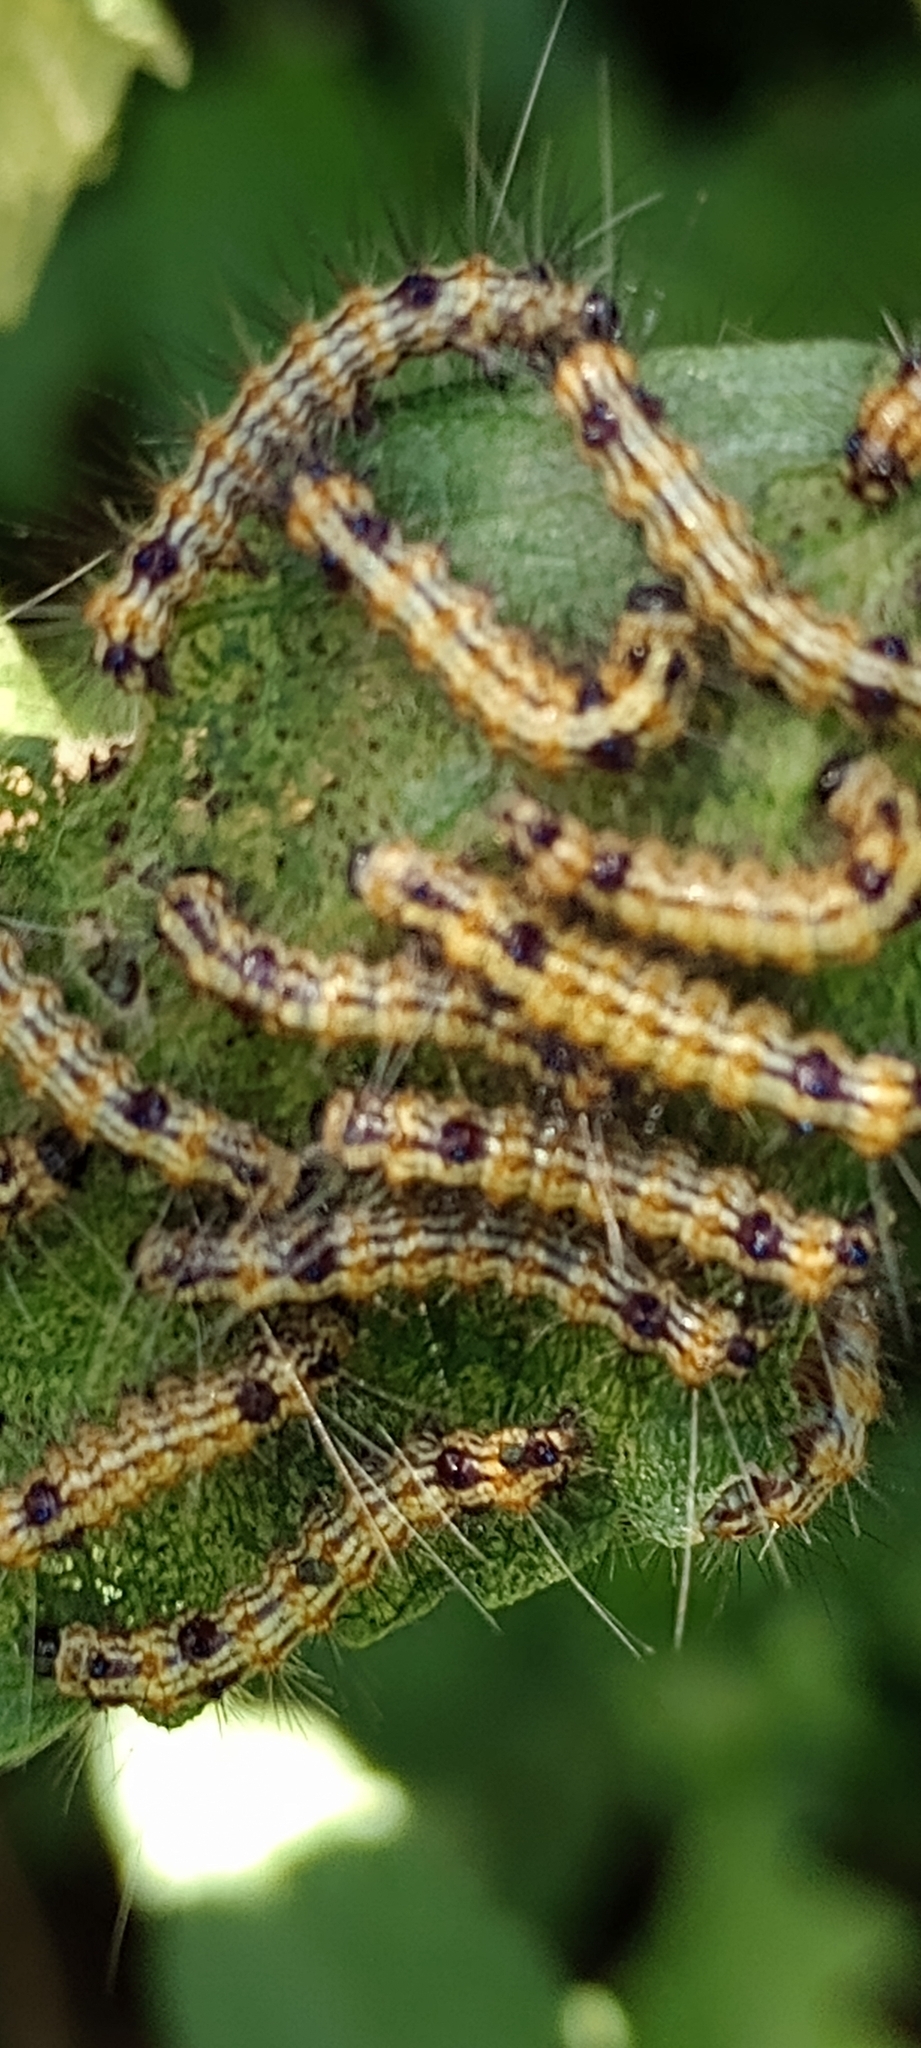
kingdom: Animalia
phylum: Arthropoda
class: Insecta
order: Lepidoptera
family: Erebidae
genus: Dysschema
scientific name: Dysschema sacrifica
